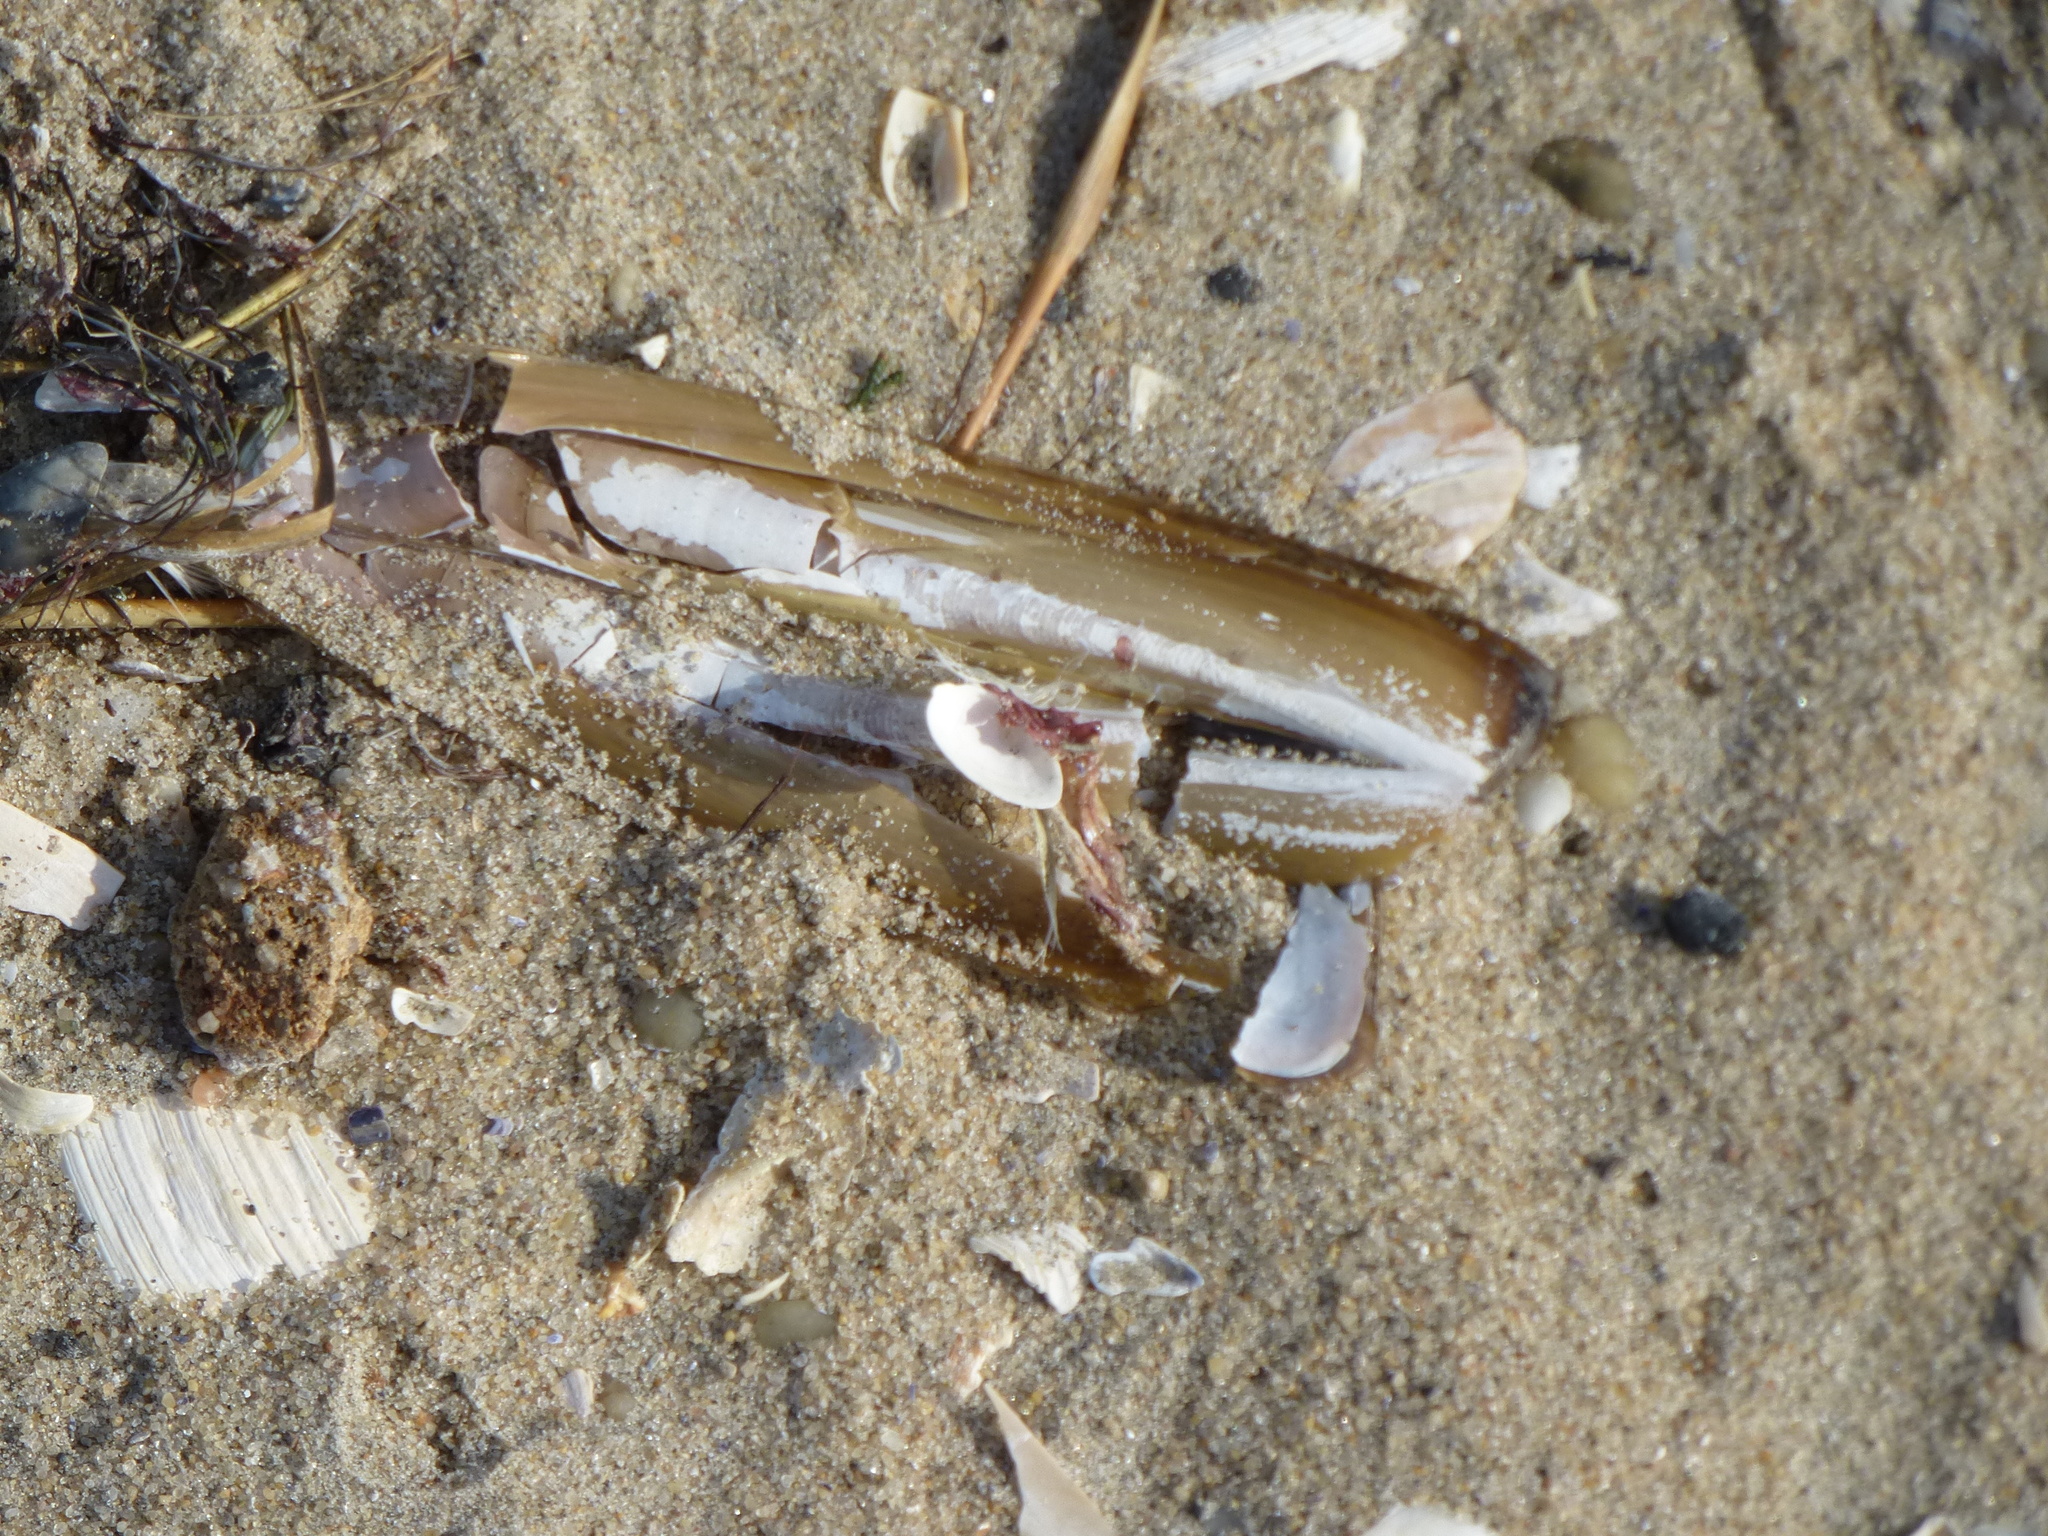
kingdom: Animalia
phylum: Mollusca
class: Bivalvia
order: Adapedonta
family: Pharidae
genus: Ensis
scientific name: Ensis leei
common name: American jack knife clam
